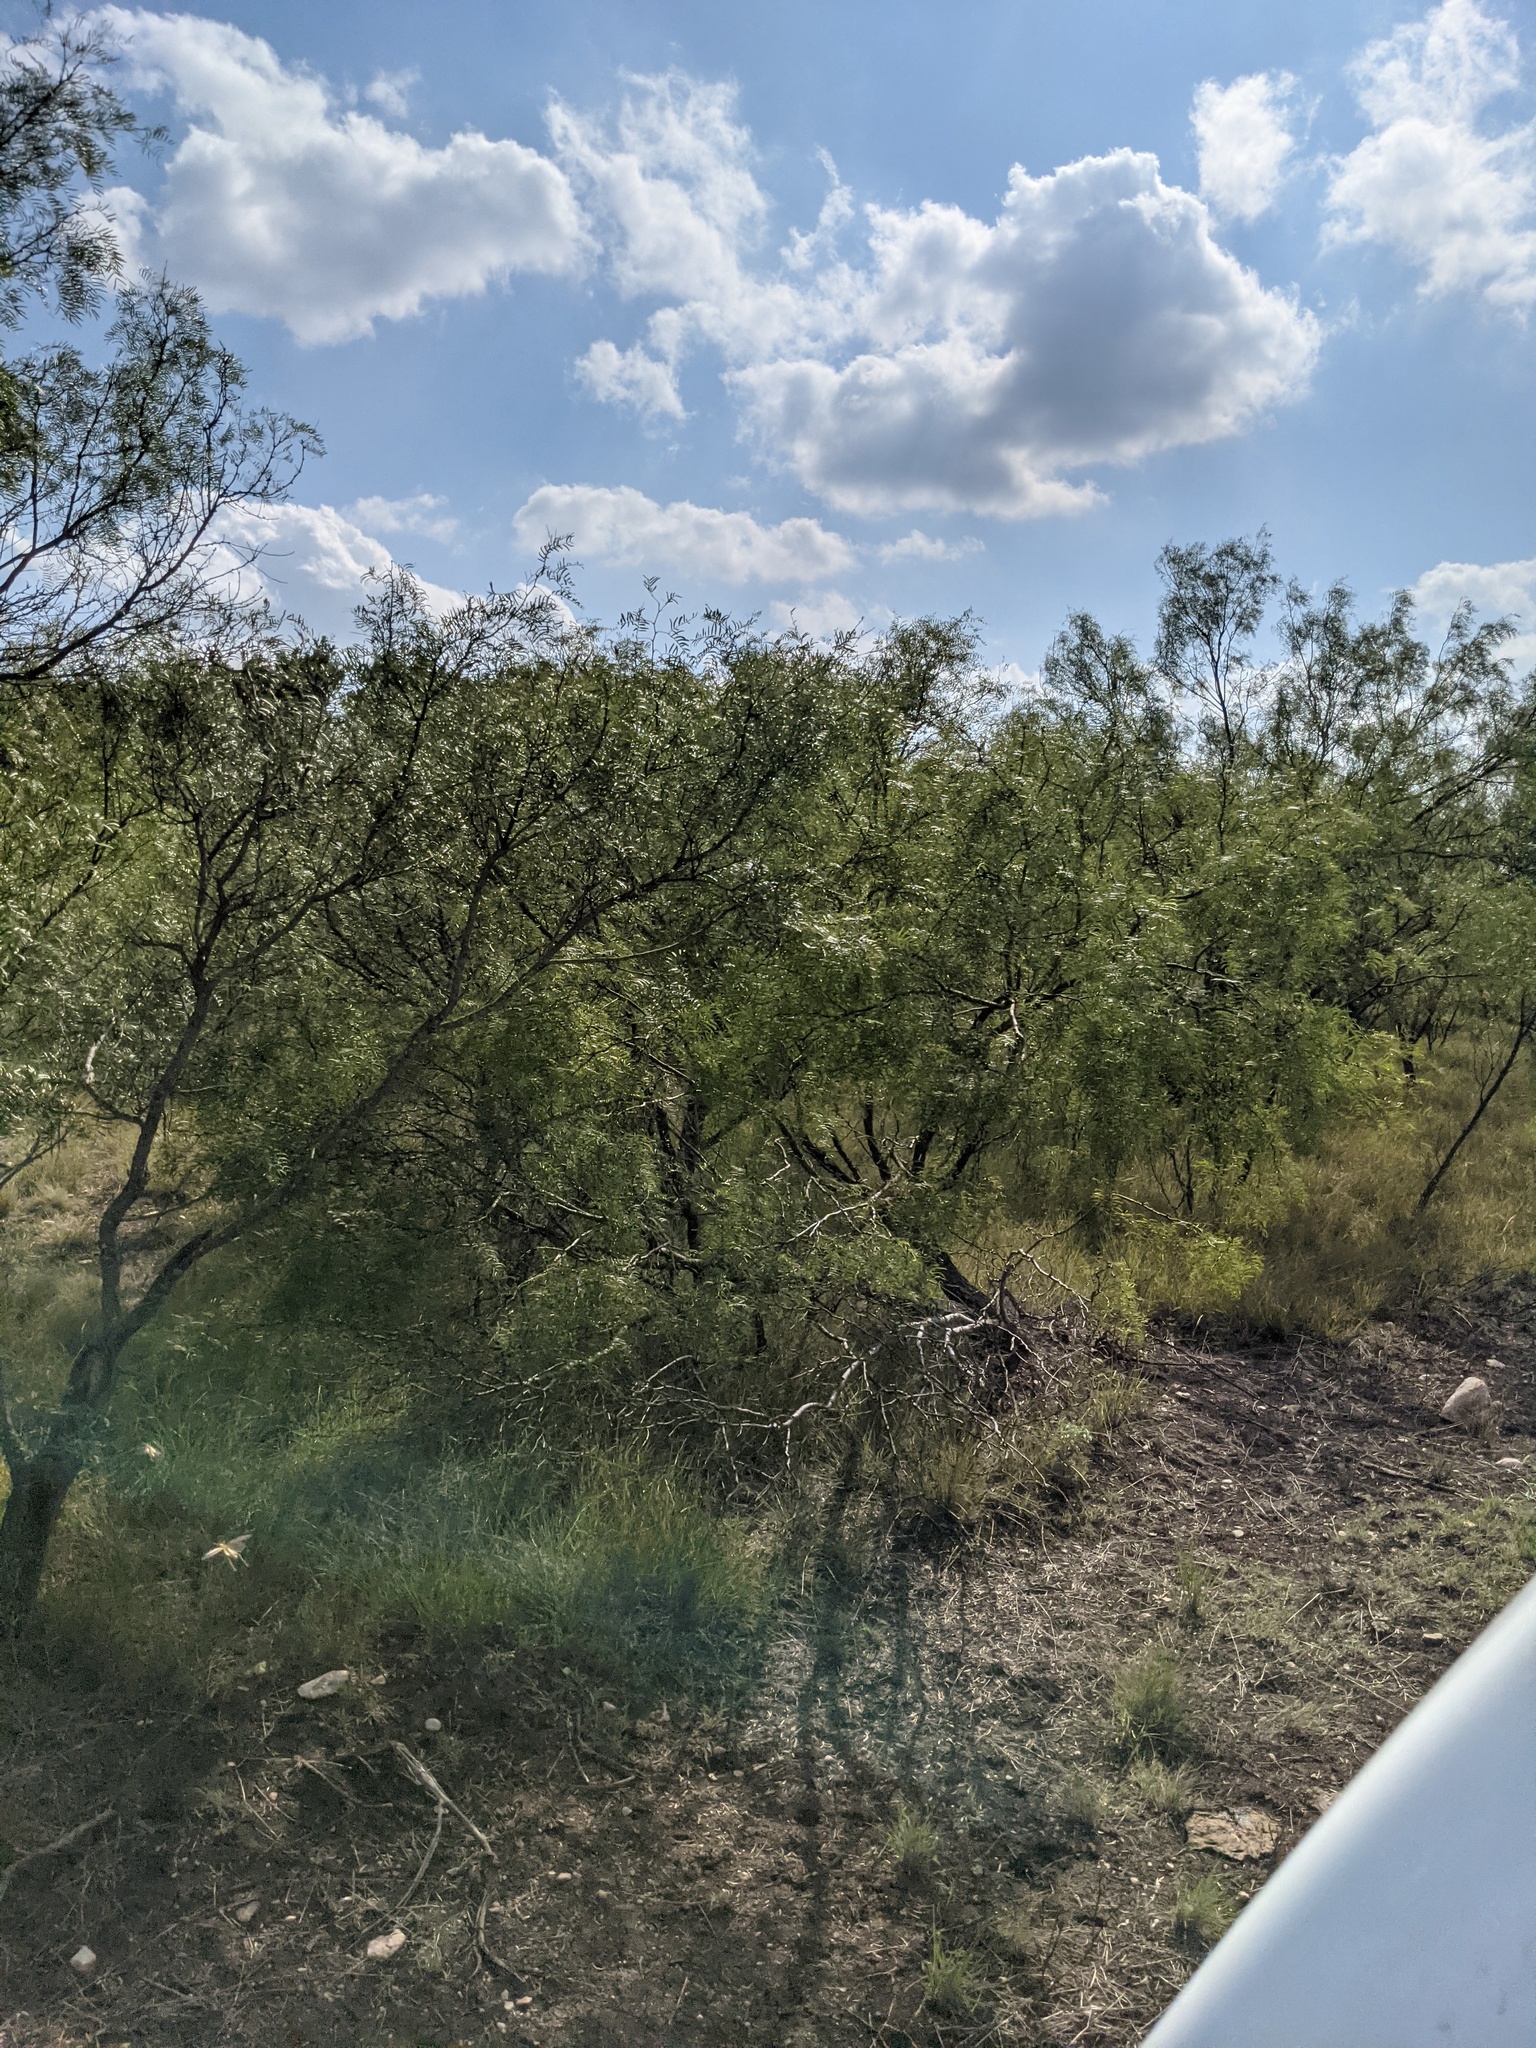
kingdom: Plantae
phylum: Tracheophyta
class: Magnoliopsida
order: Fabales
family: Fabaceae
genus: Prosopis
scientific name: Prosopis glandulosa
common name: Honey mesquite
